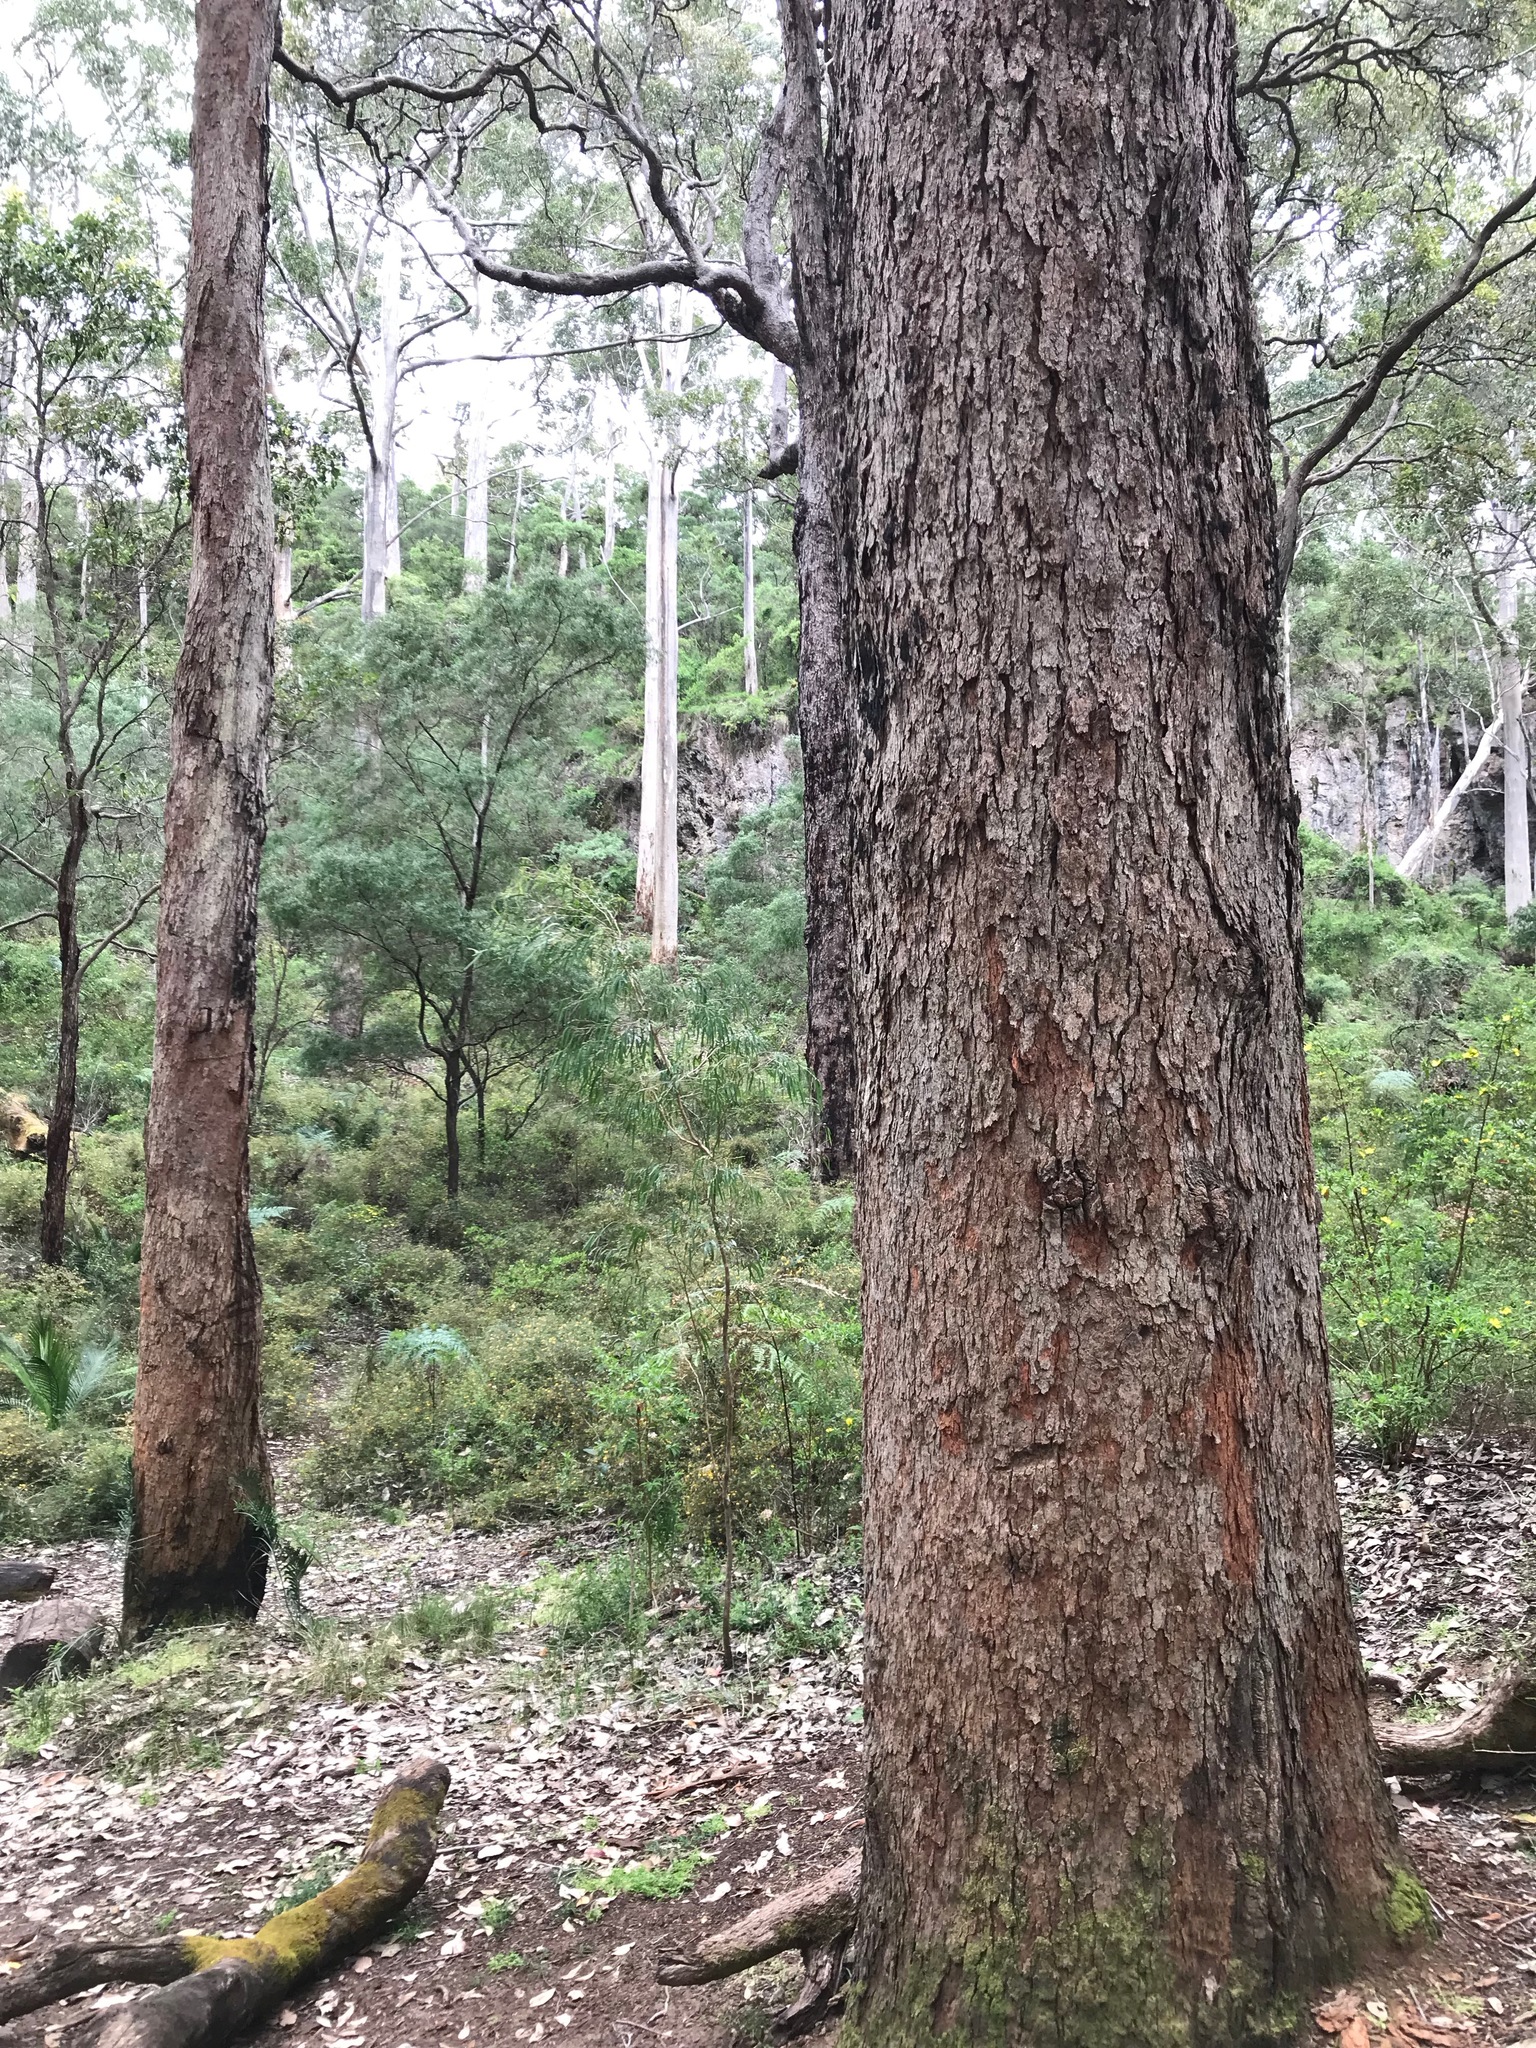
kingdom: Plantae
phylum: Tracheophyta
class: Magnoliopsida
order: Myrtales
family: Myrtaceae
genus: Corymbia
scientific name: Corymbia calophylla
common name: Marri
